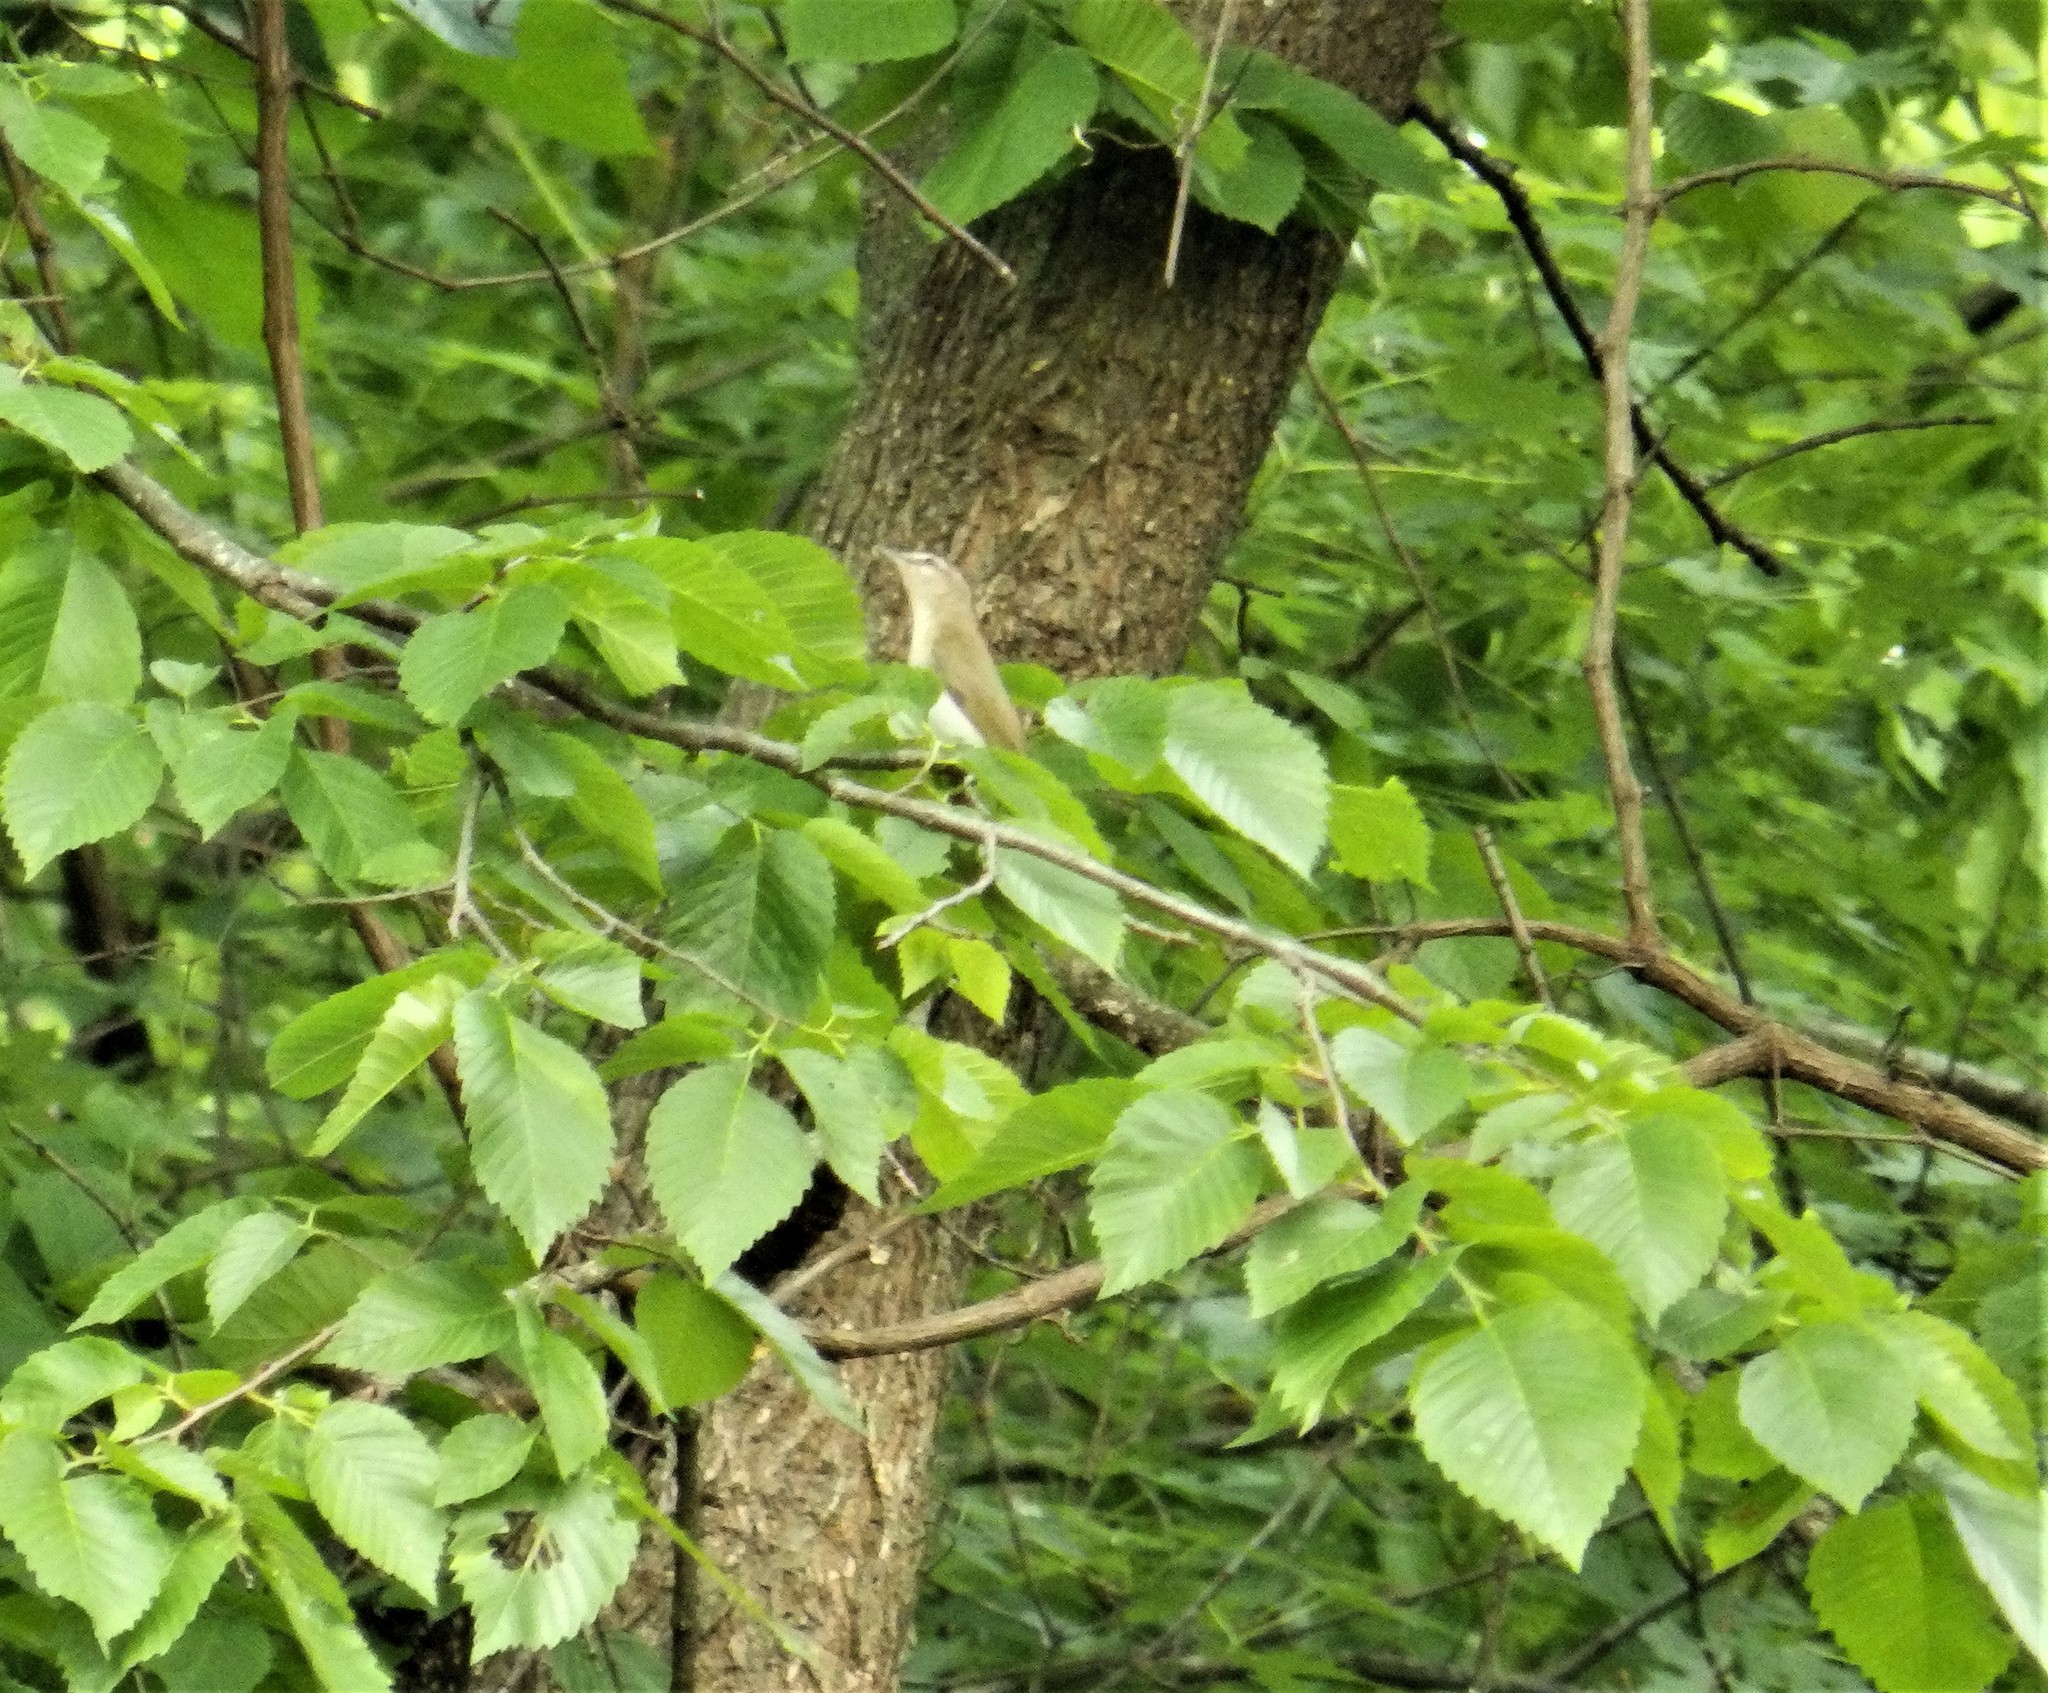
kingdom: Animalia
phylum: Chordata
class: Aves
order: Passeriformes
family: Vireonidae
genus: Vireo
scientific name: Vireo olivaceus
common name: Red-eyed vireo
